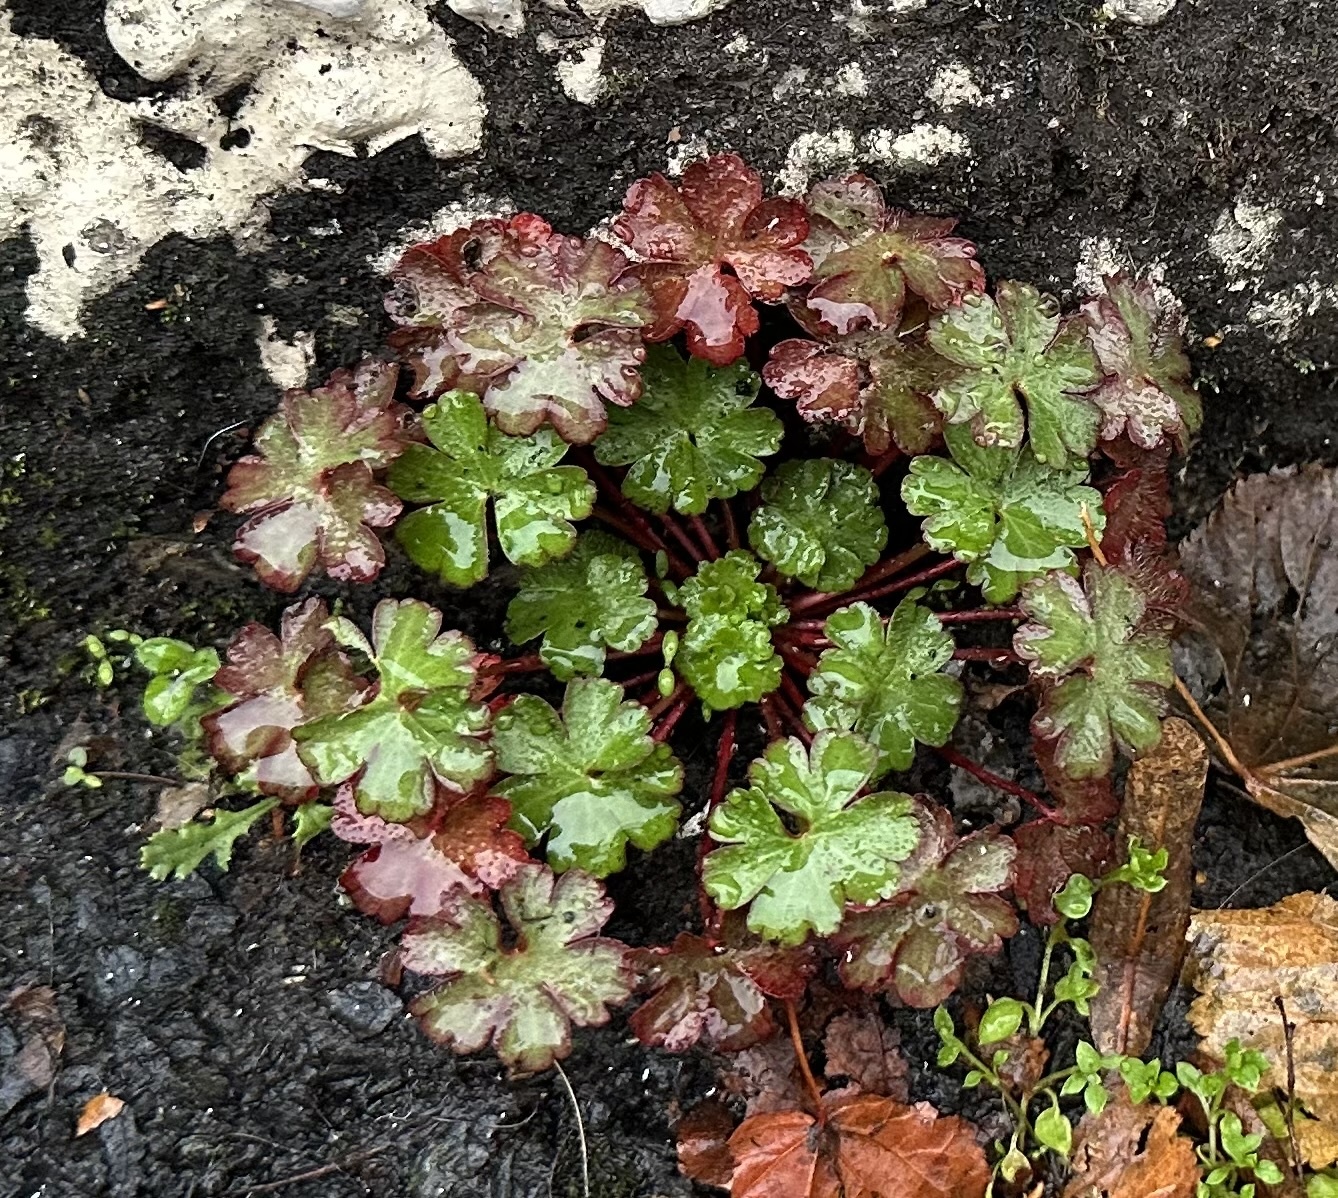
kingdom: Plantae
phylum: Tracheophyta
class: Magnoliopsida
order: Geraniales
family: Geraniaceae
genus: Geranium
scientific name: Geranium lucidum
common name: Shining crane's-bill
